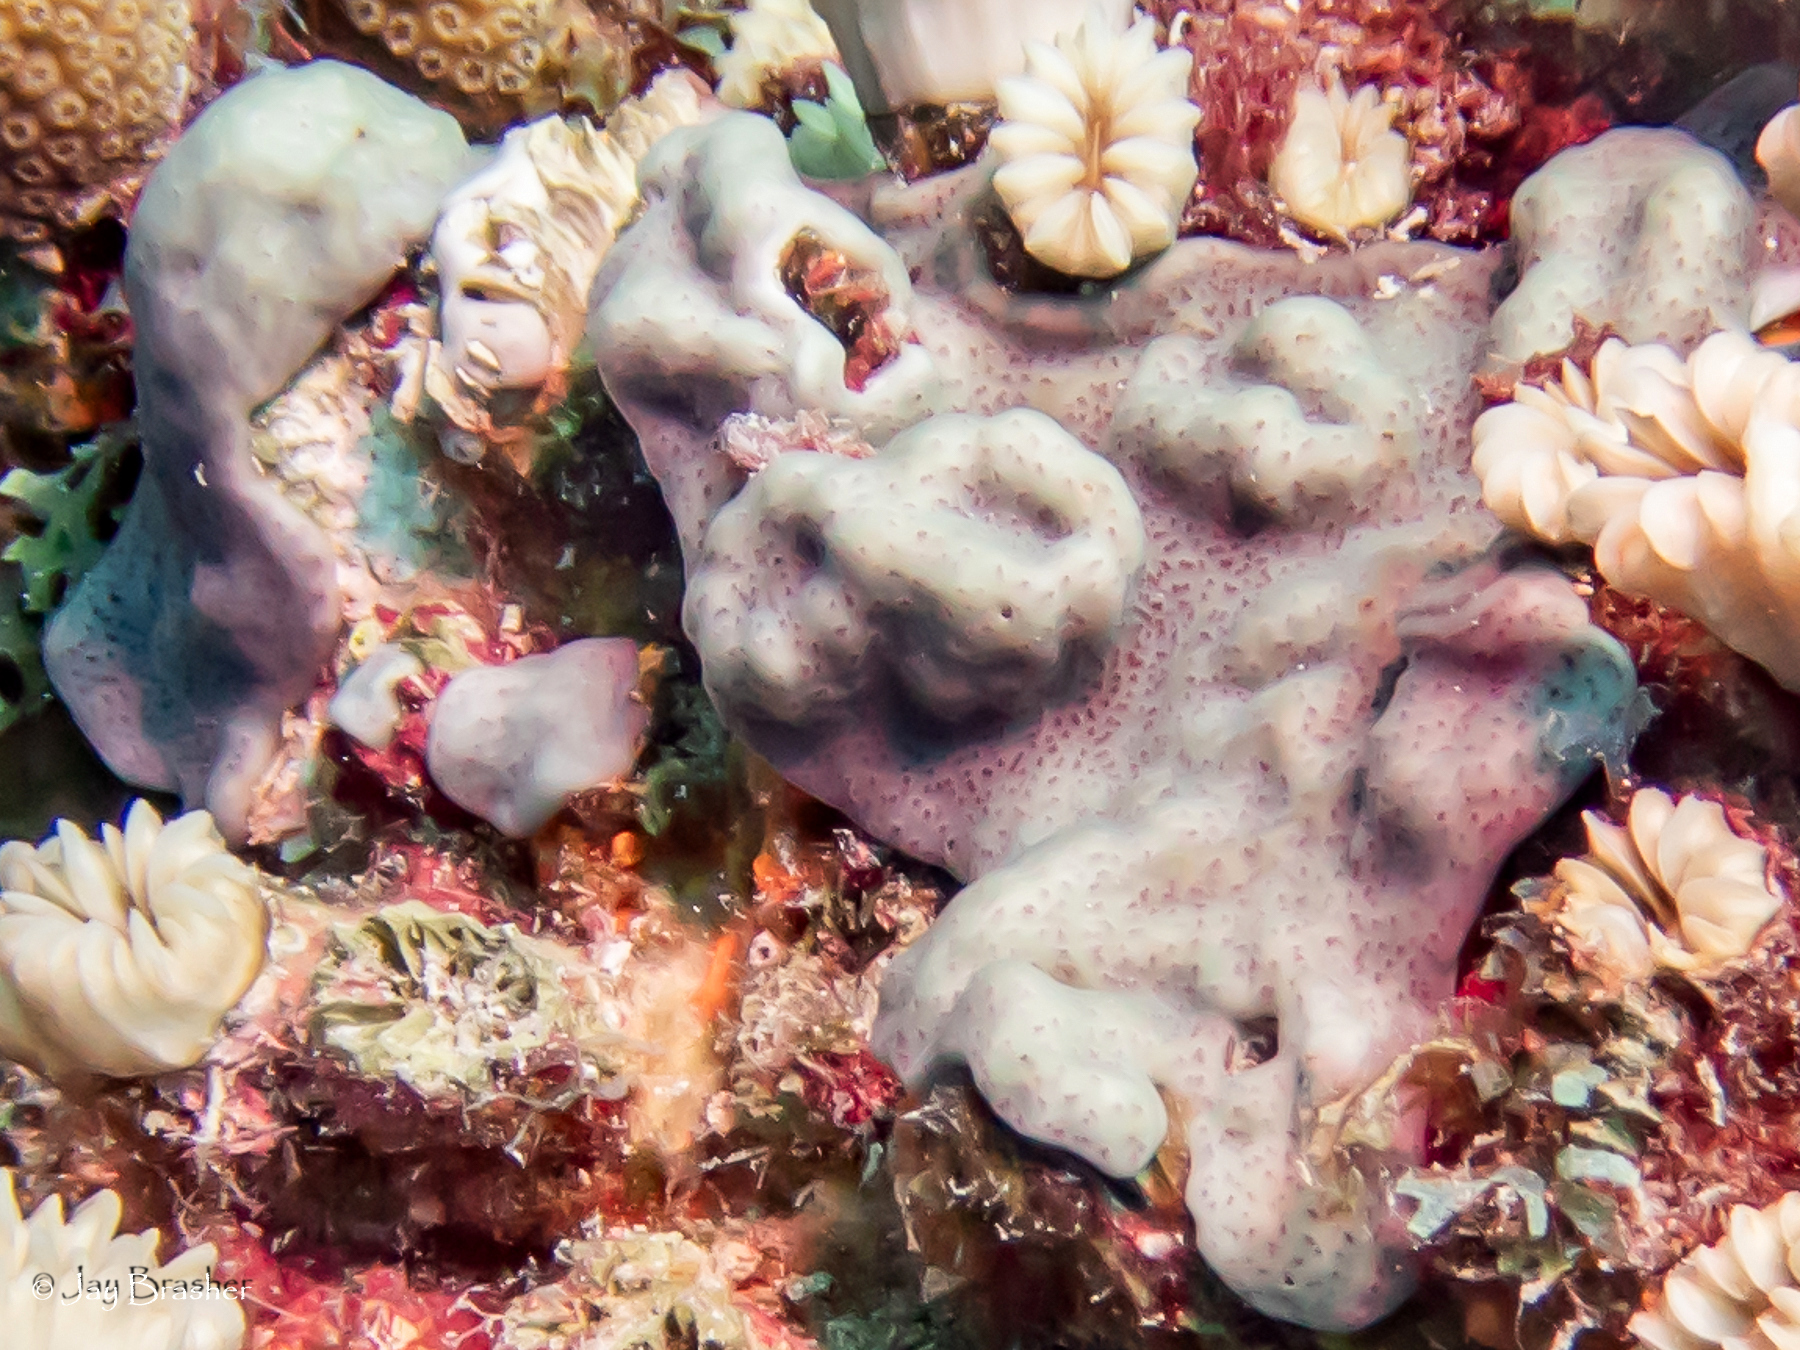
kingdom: Animalia
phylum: Chordata
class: Ascidiacea
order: Aplousobranchia
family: Didemnidae
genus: Trididemnum
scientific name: Trididemnum solidum
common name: Overgrowing mat tunicate
